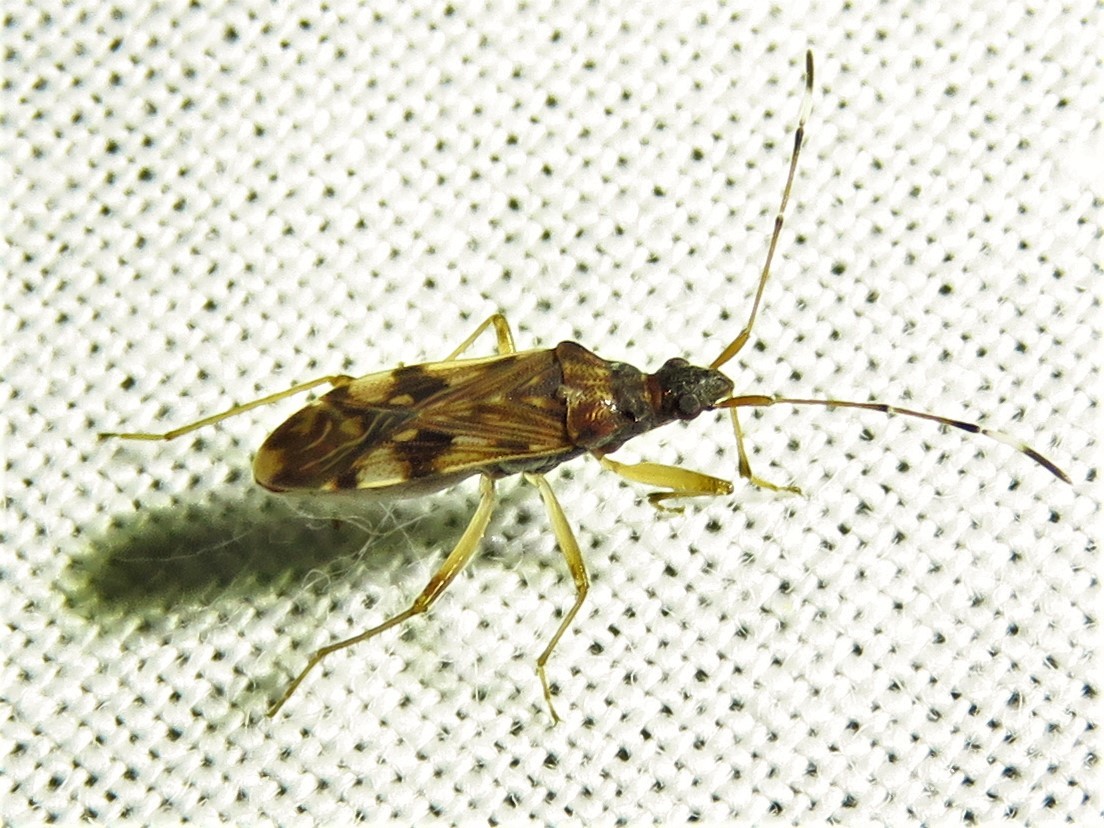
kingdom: Animalia
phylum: Arthropoda
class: Insecta
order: Hemiptera
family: Rhyparochromidae
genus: Ozophora
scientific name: Ozophora picturata
